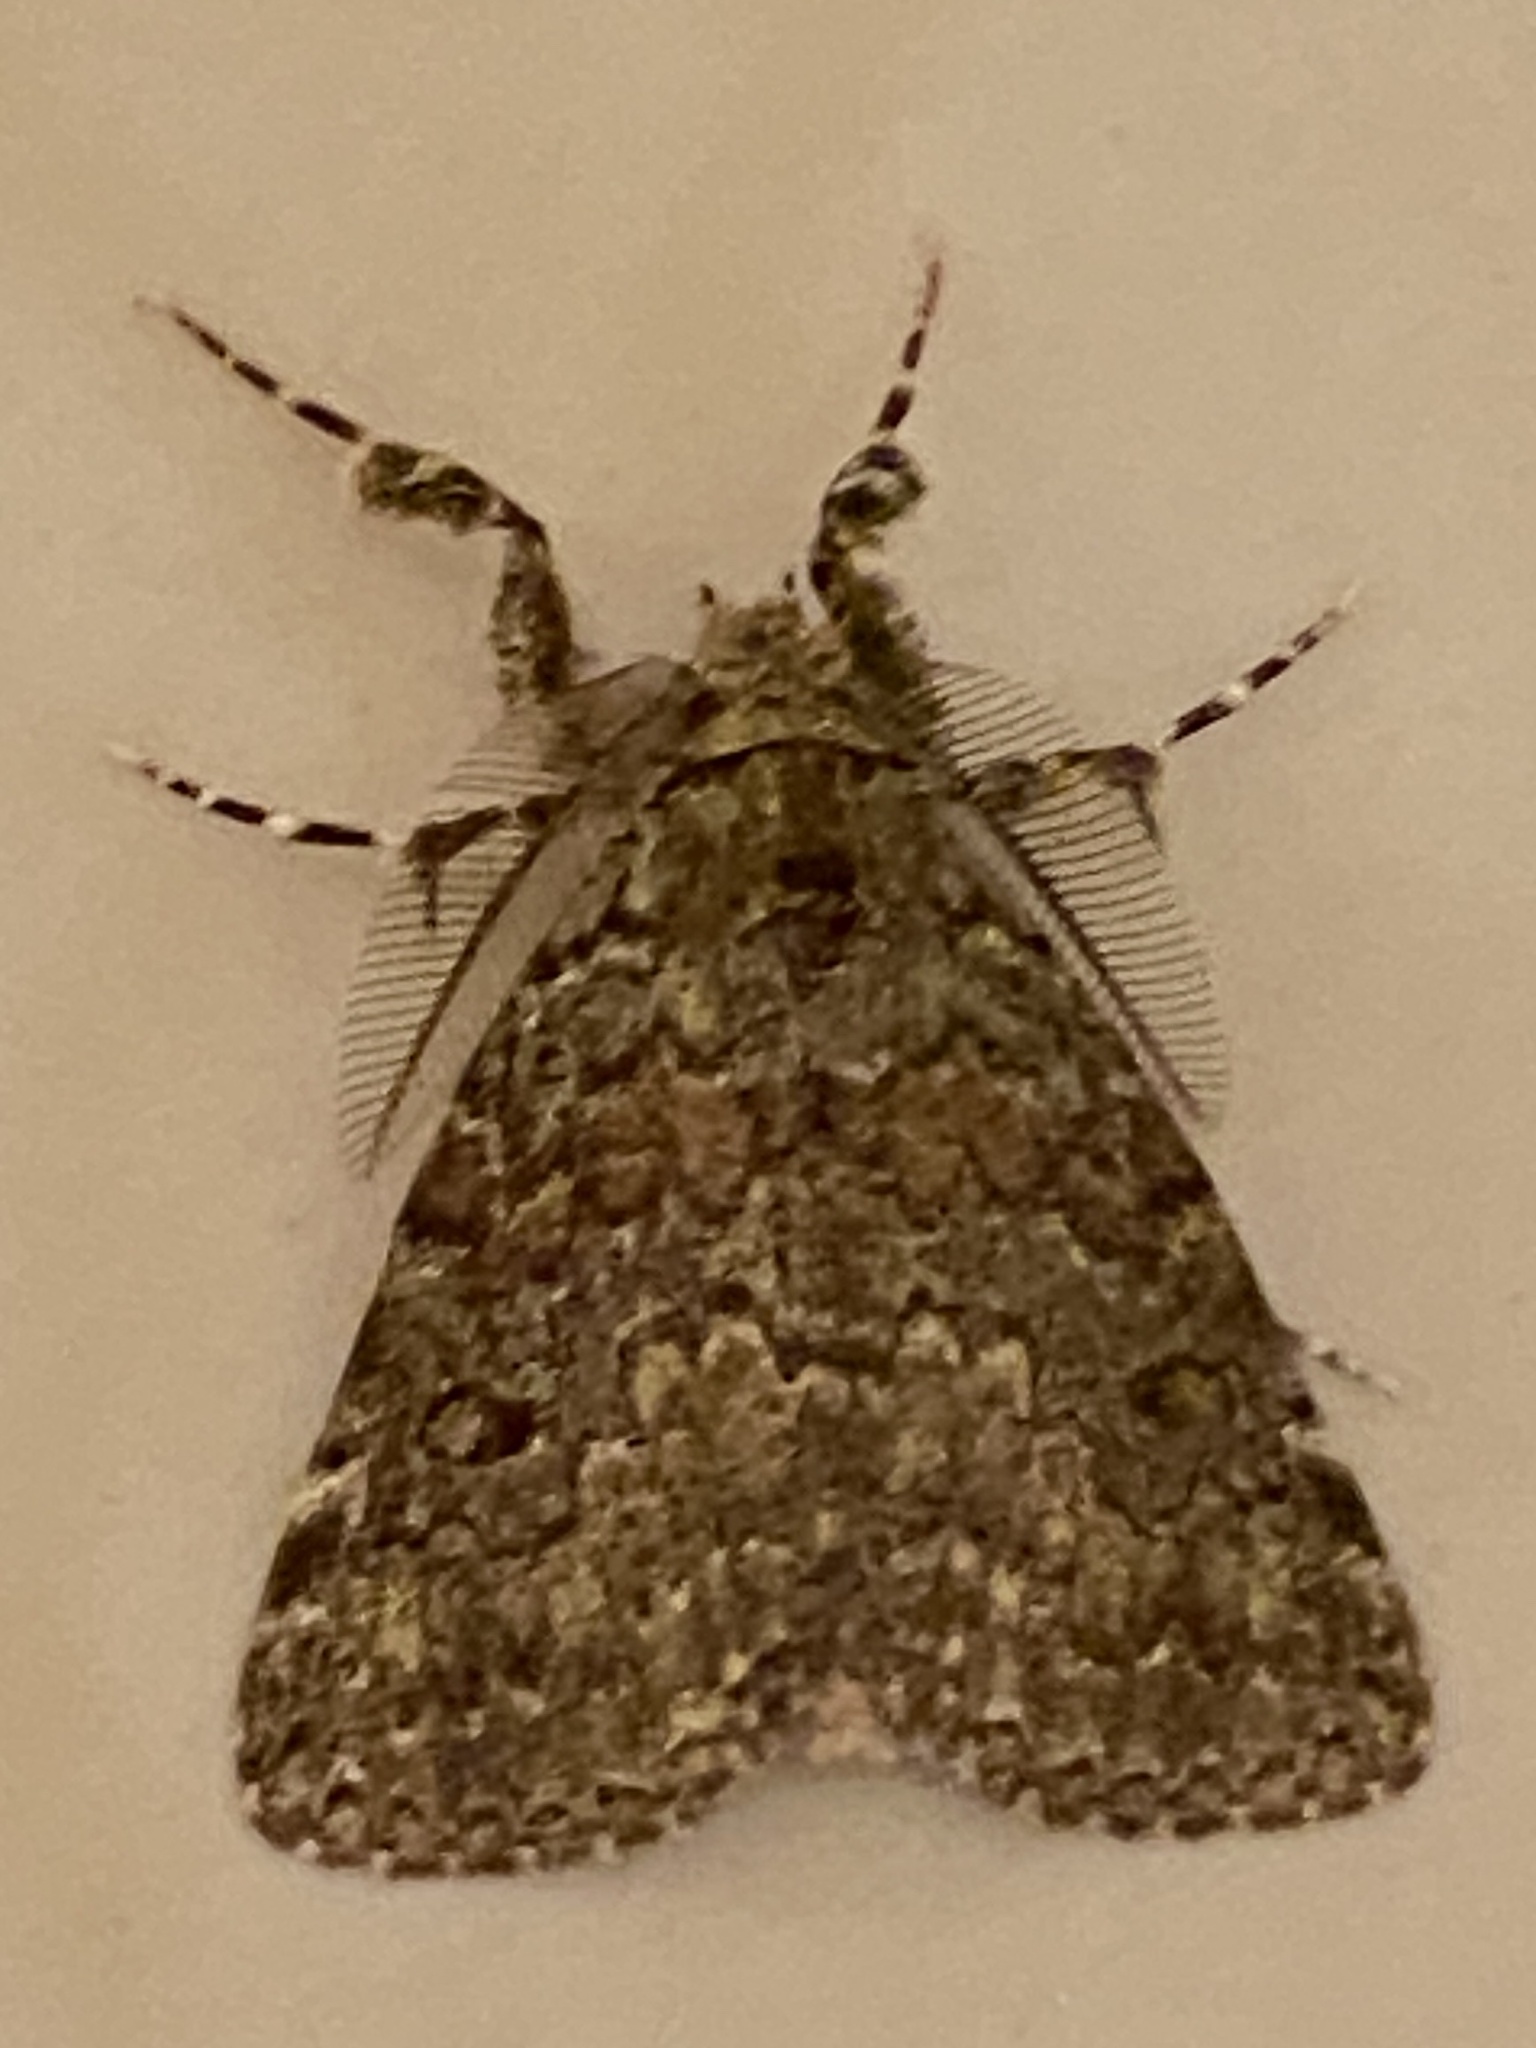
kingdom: Animalia
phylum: Arthropoda
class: Insecta
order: Lepidoptera
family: Erebidae
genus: Laelia
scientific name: Laelia fusca
